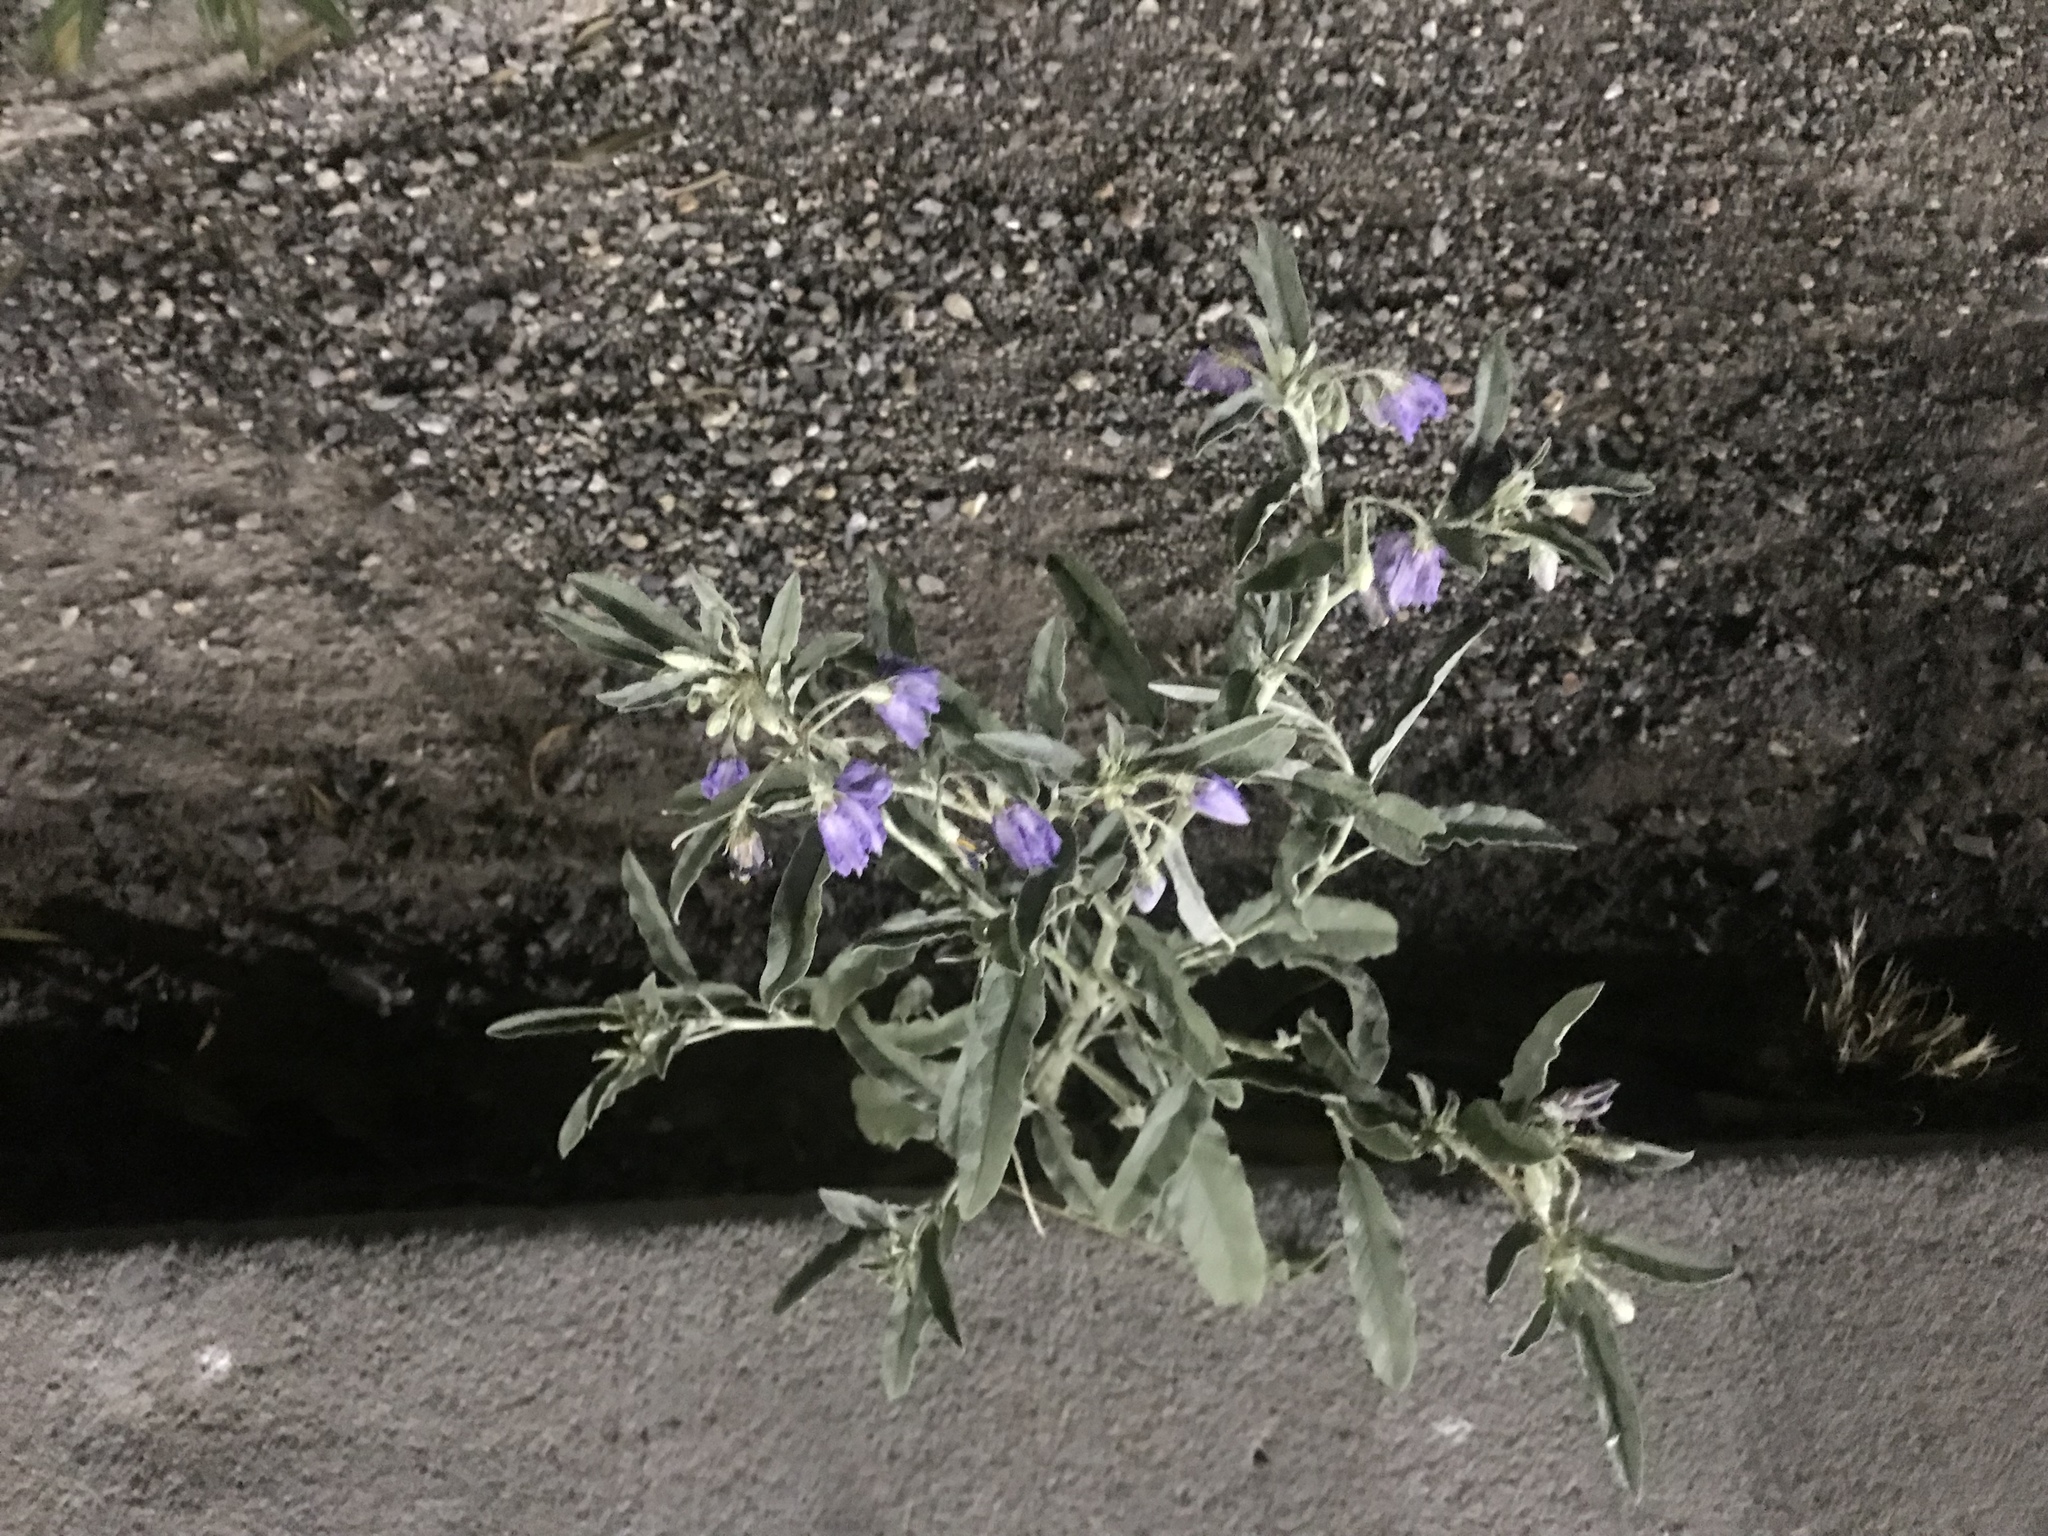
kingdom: Plantae
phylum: Tracheophyta
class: Magnoliopsida
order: Solanales
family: Solanaceae
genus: Solanum
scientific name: Solanum elaeagnifolium
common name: Silverleaf nightshade
